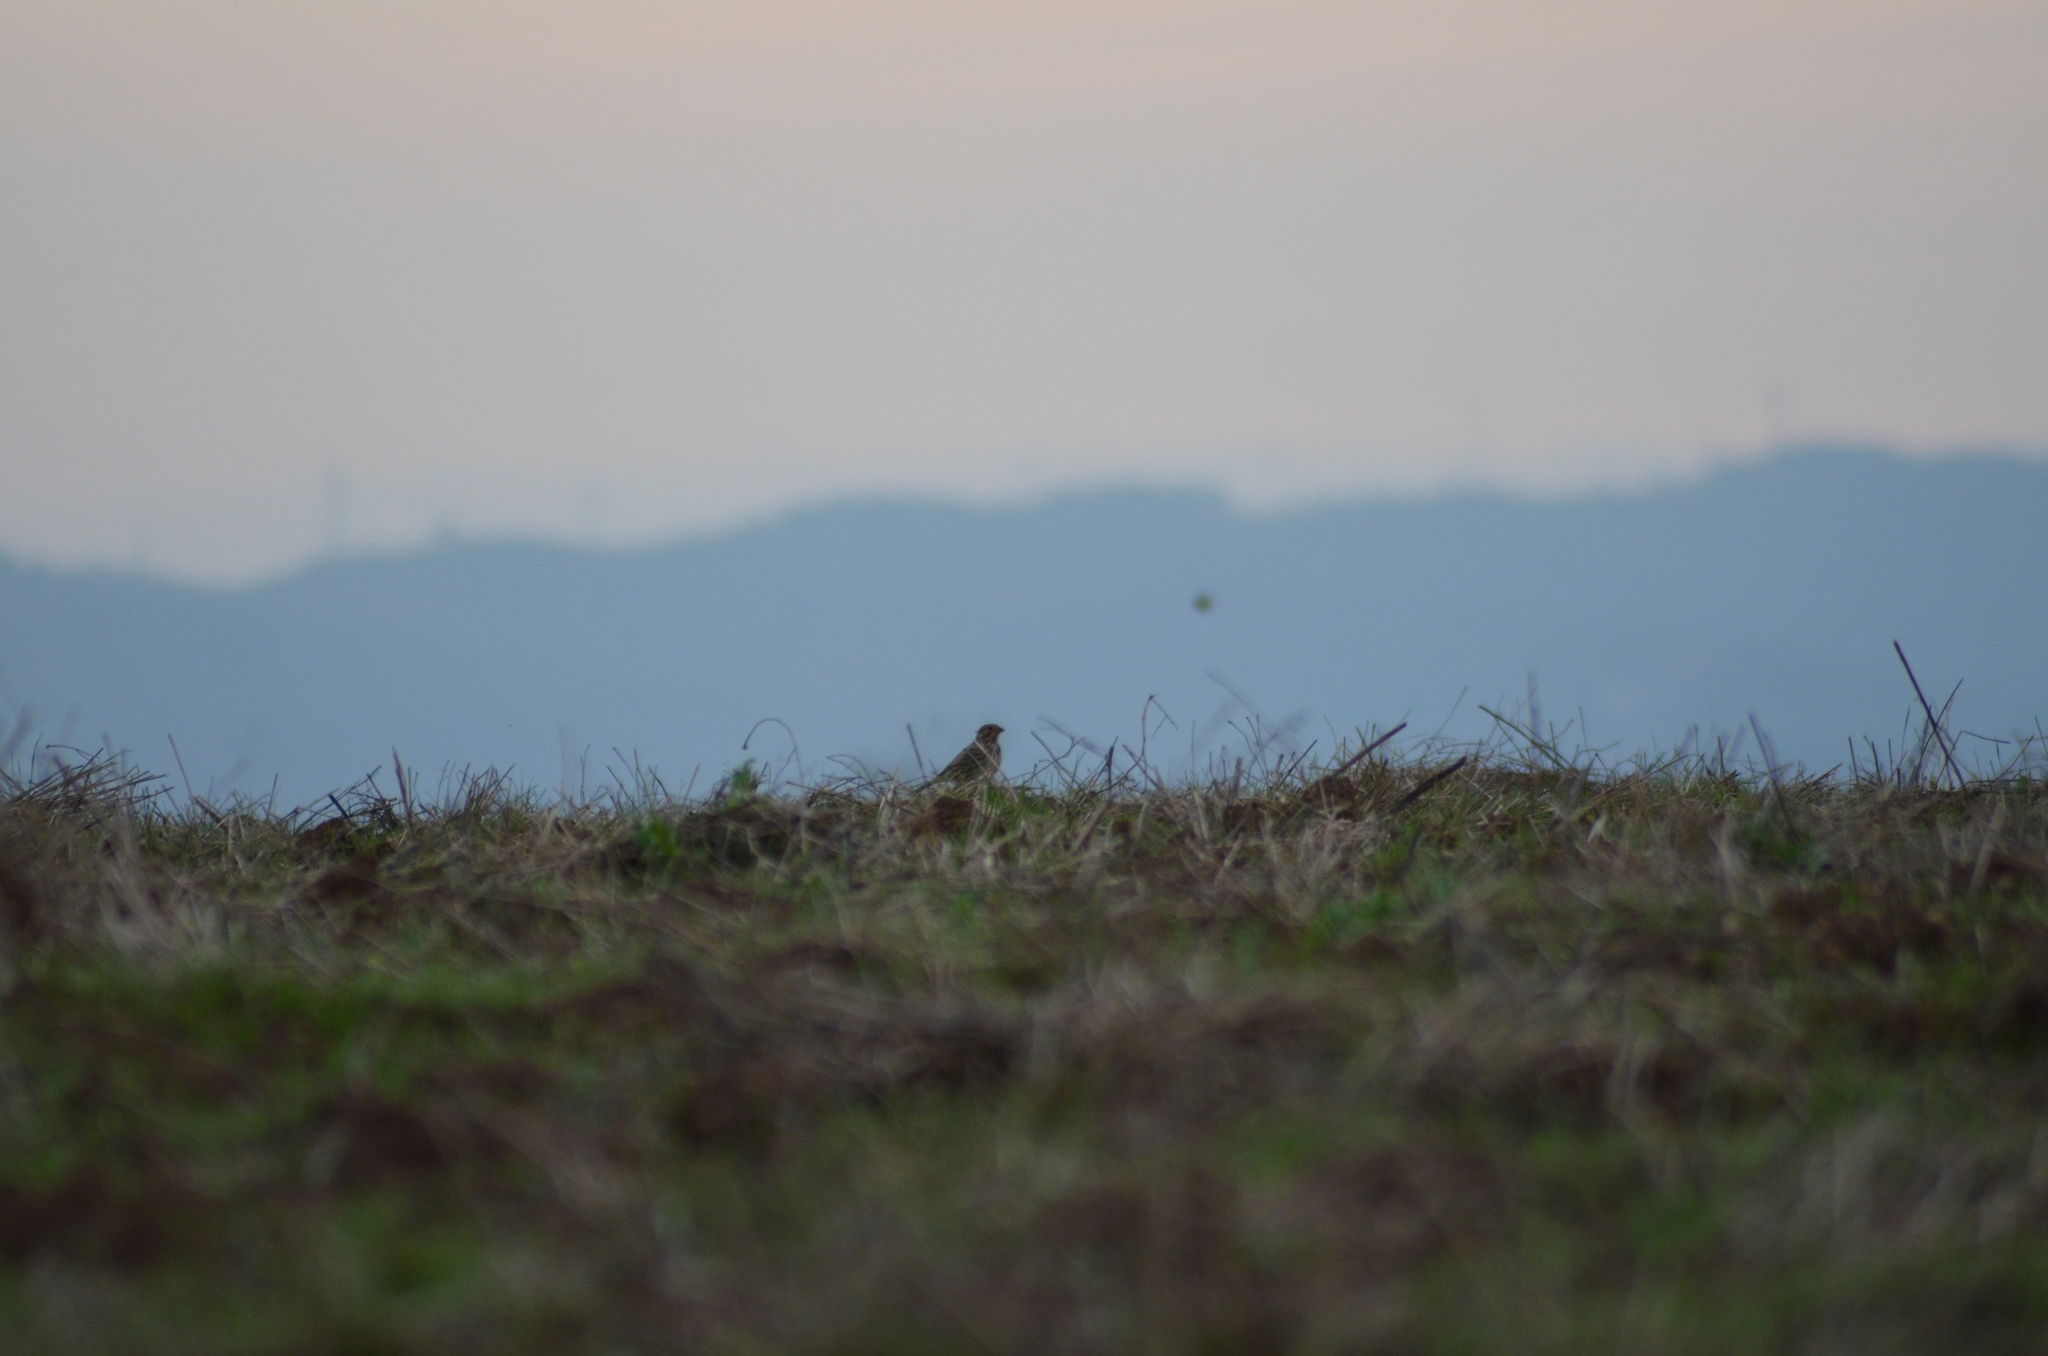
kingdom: Animalia
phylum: Chordata
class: Aves
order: Passeriformes
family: Emberizidae
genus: Emberiza
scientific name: Emberiza calandra
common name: Corn bunting
